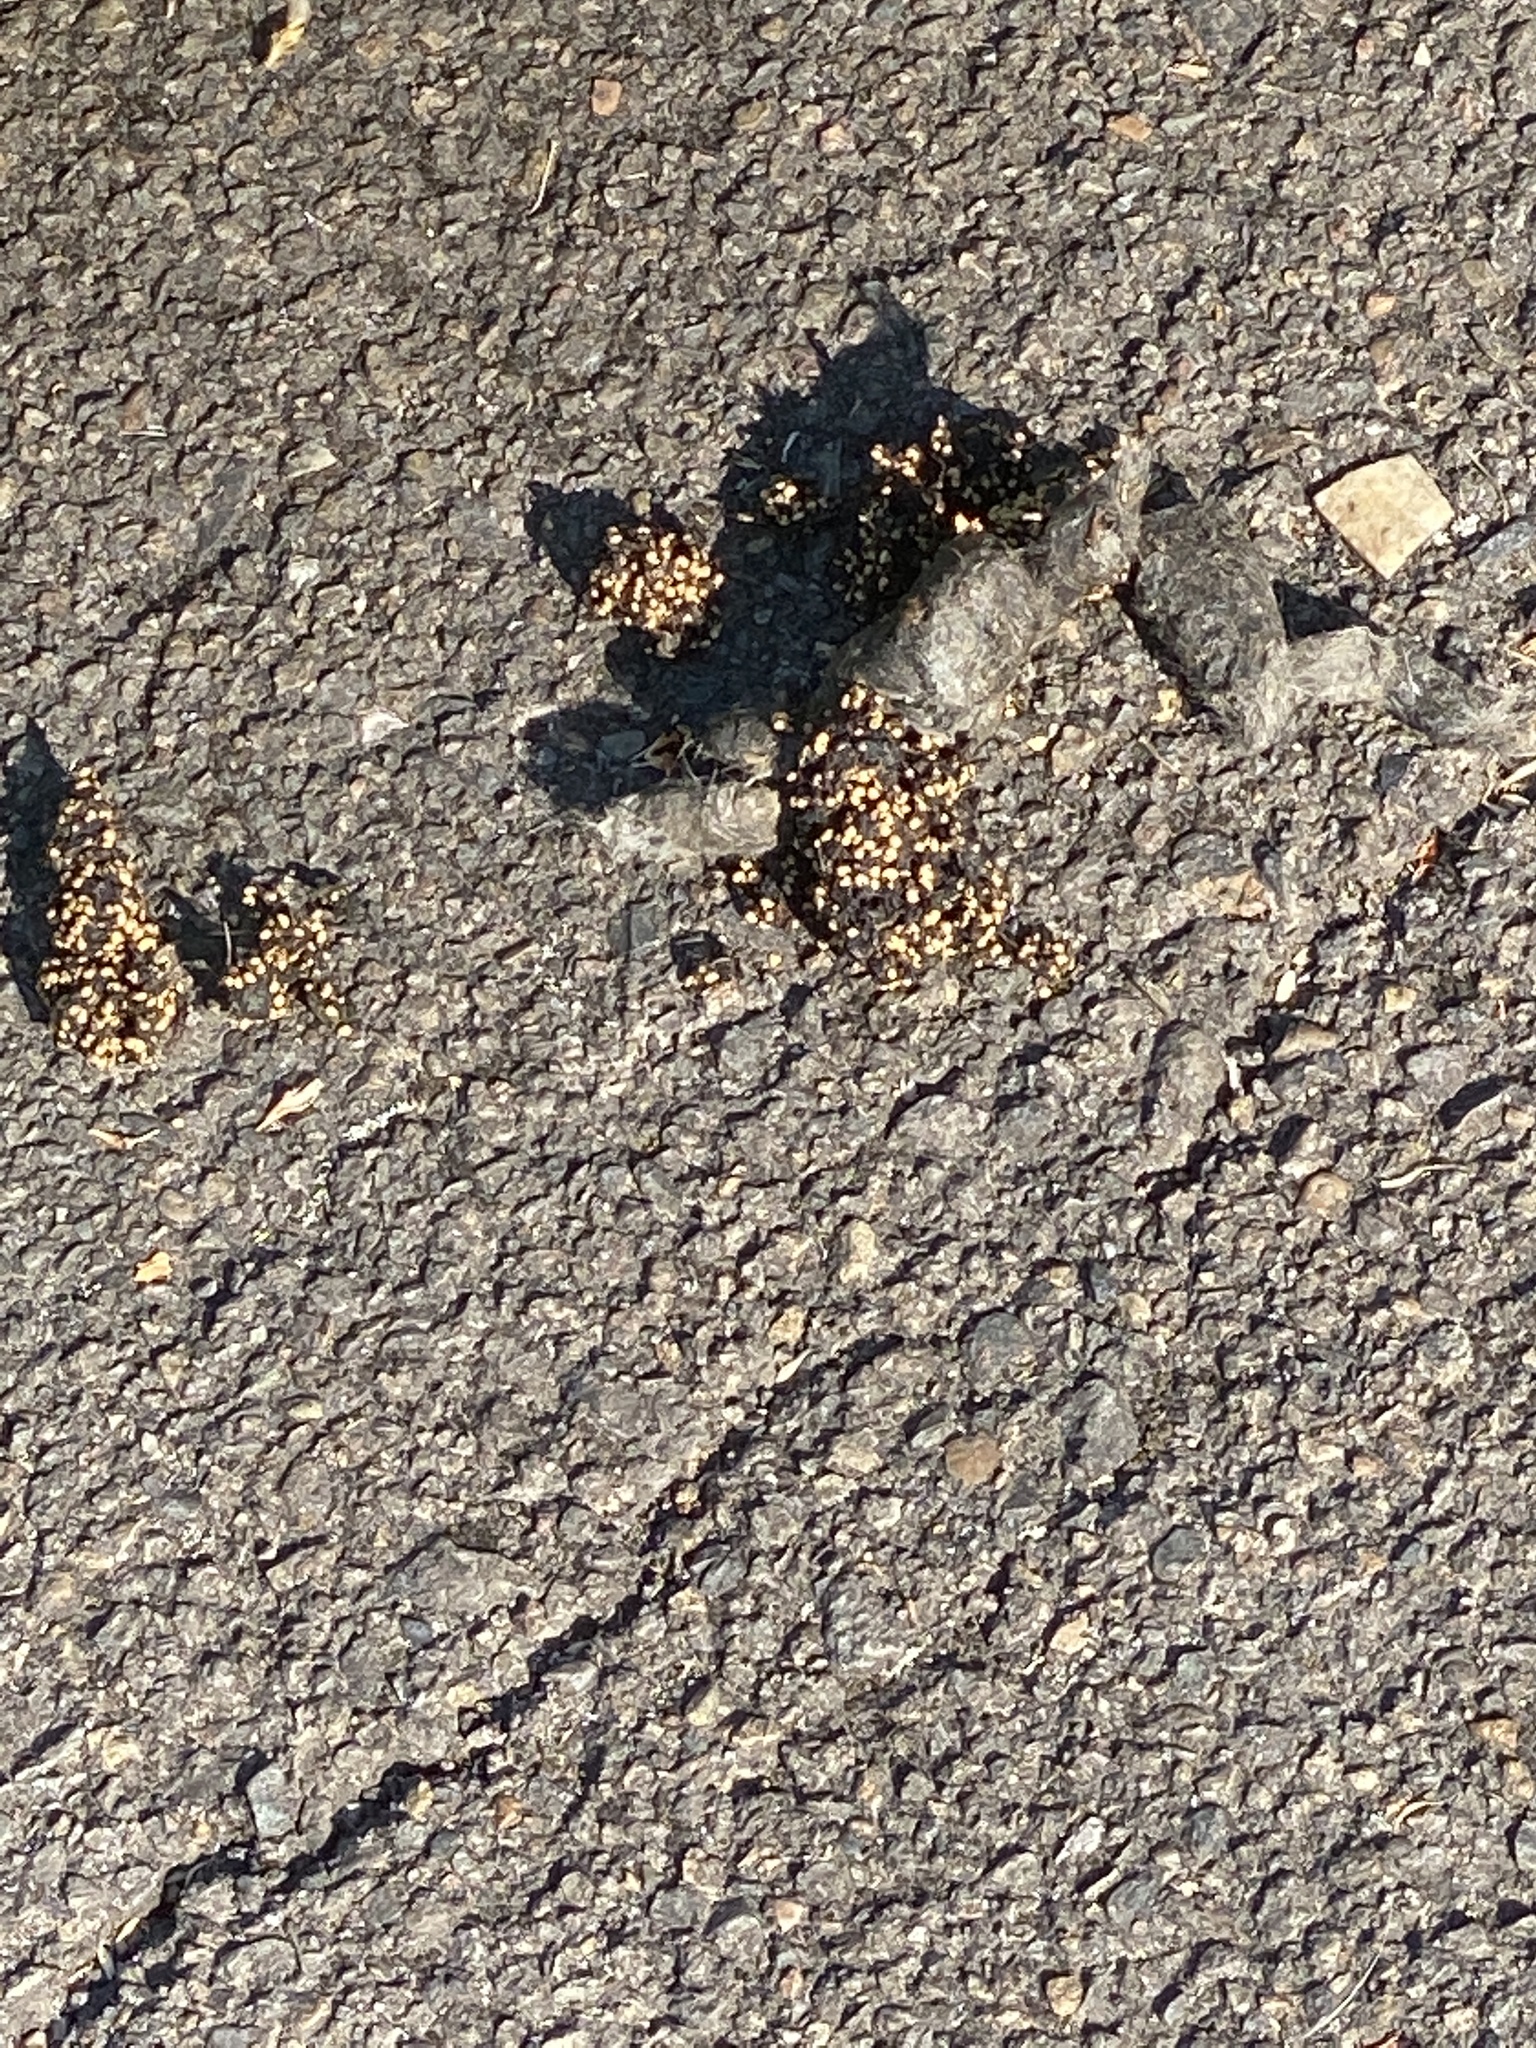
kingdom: Animalia
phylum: Chordata
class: Mammalia
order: Carnivora
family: Canidae
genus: Canis
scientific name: Canis latrans
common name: Coyote
